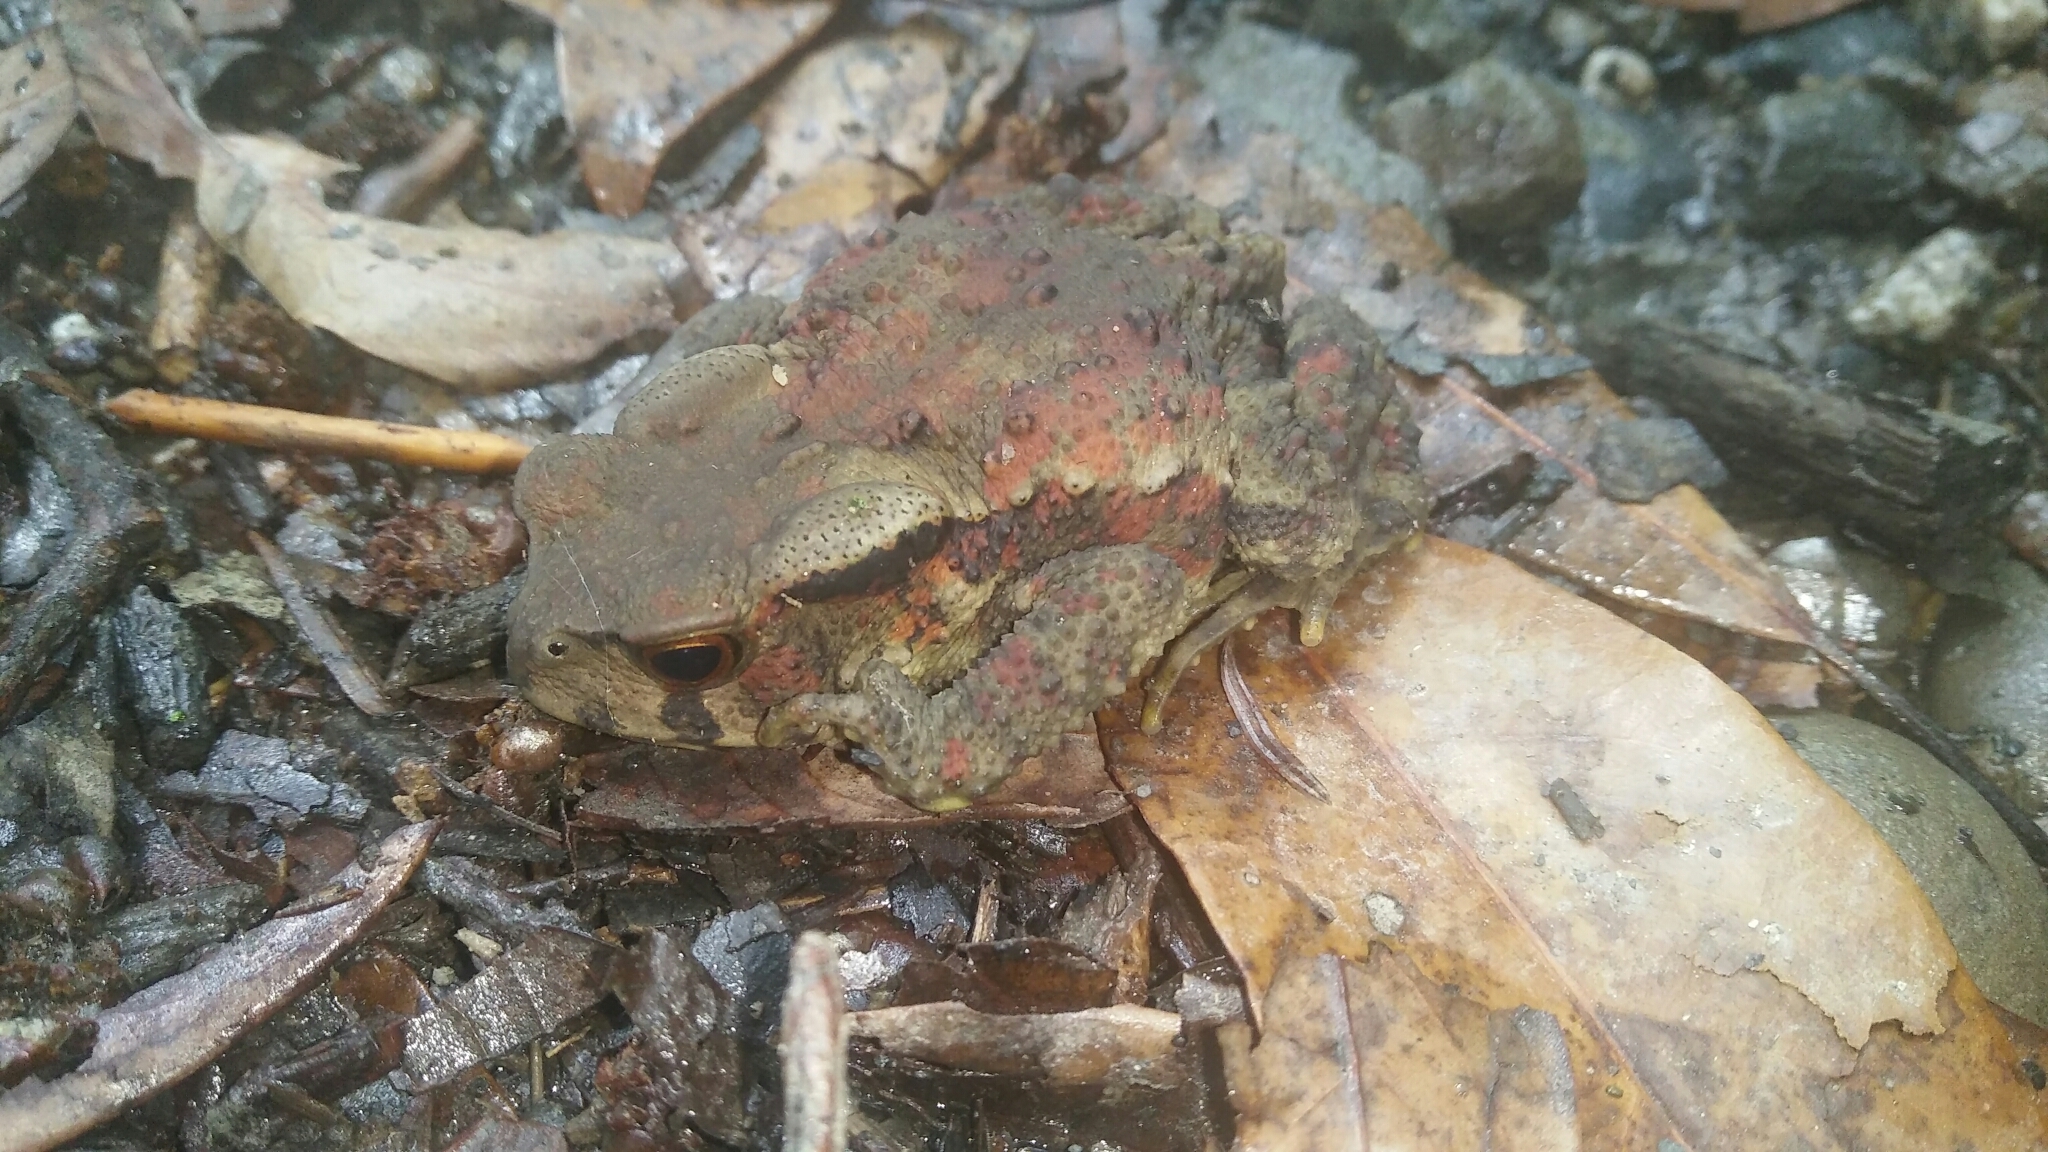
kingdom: Animalia
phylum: Chordata
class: Amphibia
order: Anura
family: Bufonidae
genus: Bufo
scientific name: Bufo bankorensis
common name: Bankor toad
